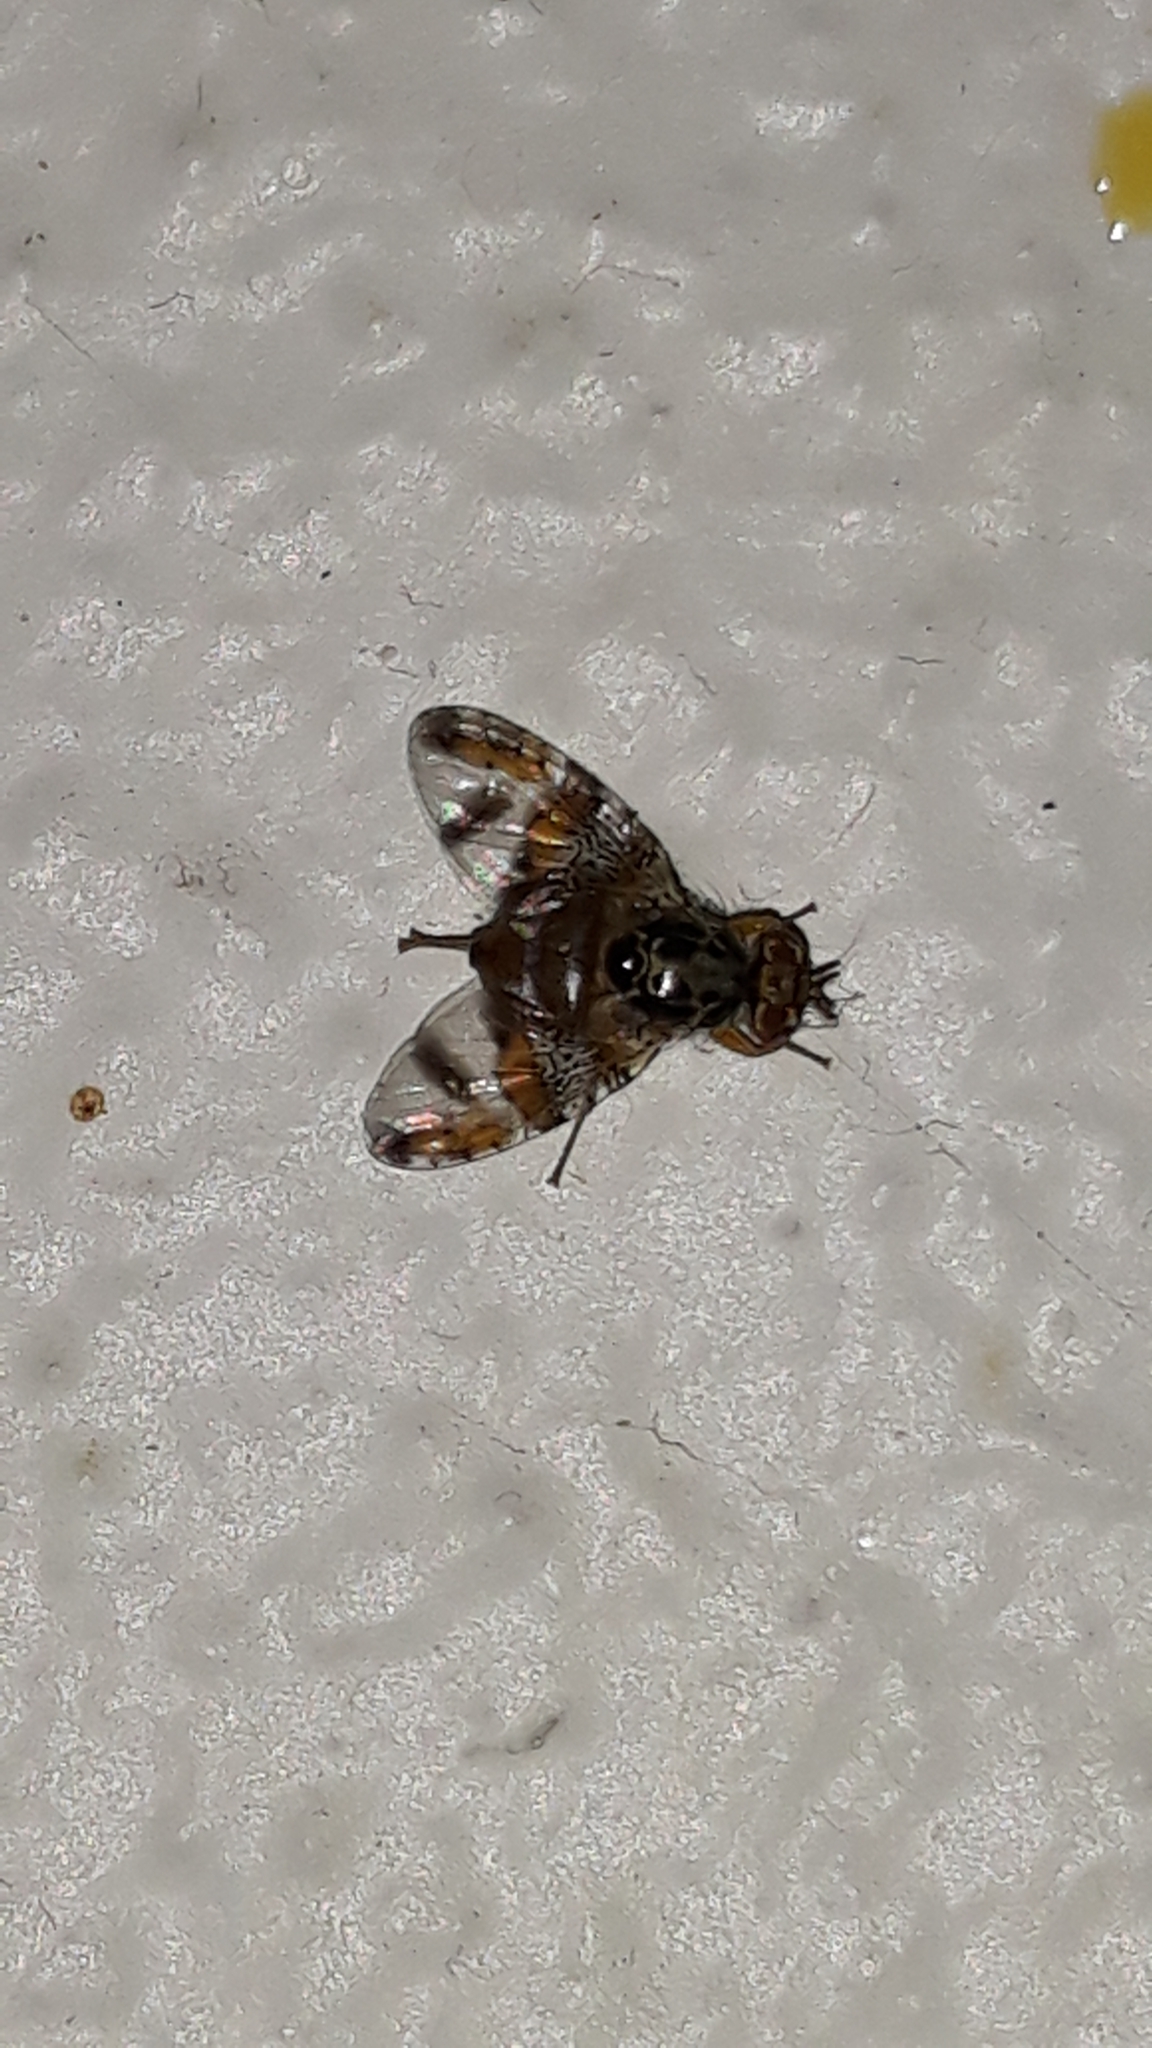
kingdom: Animalia
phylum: Arthropoda
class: Insecta
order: Diptera
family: Tephritidae
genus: Ceratitis
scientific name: Ceratitis capitata
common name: Mediterranean fruit fly
